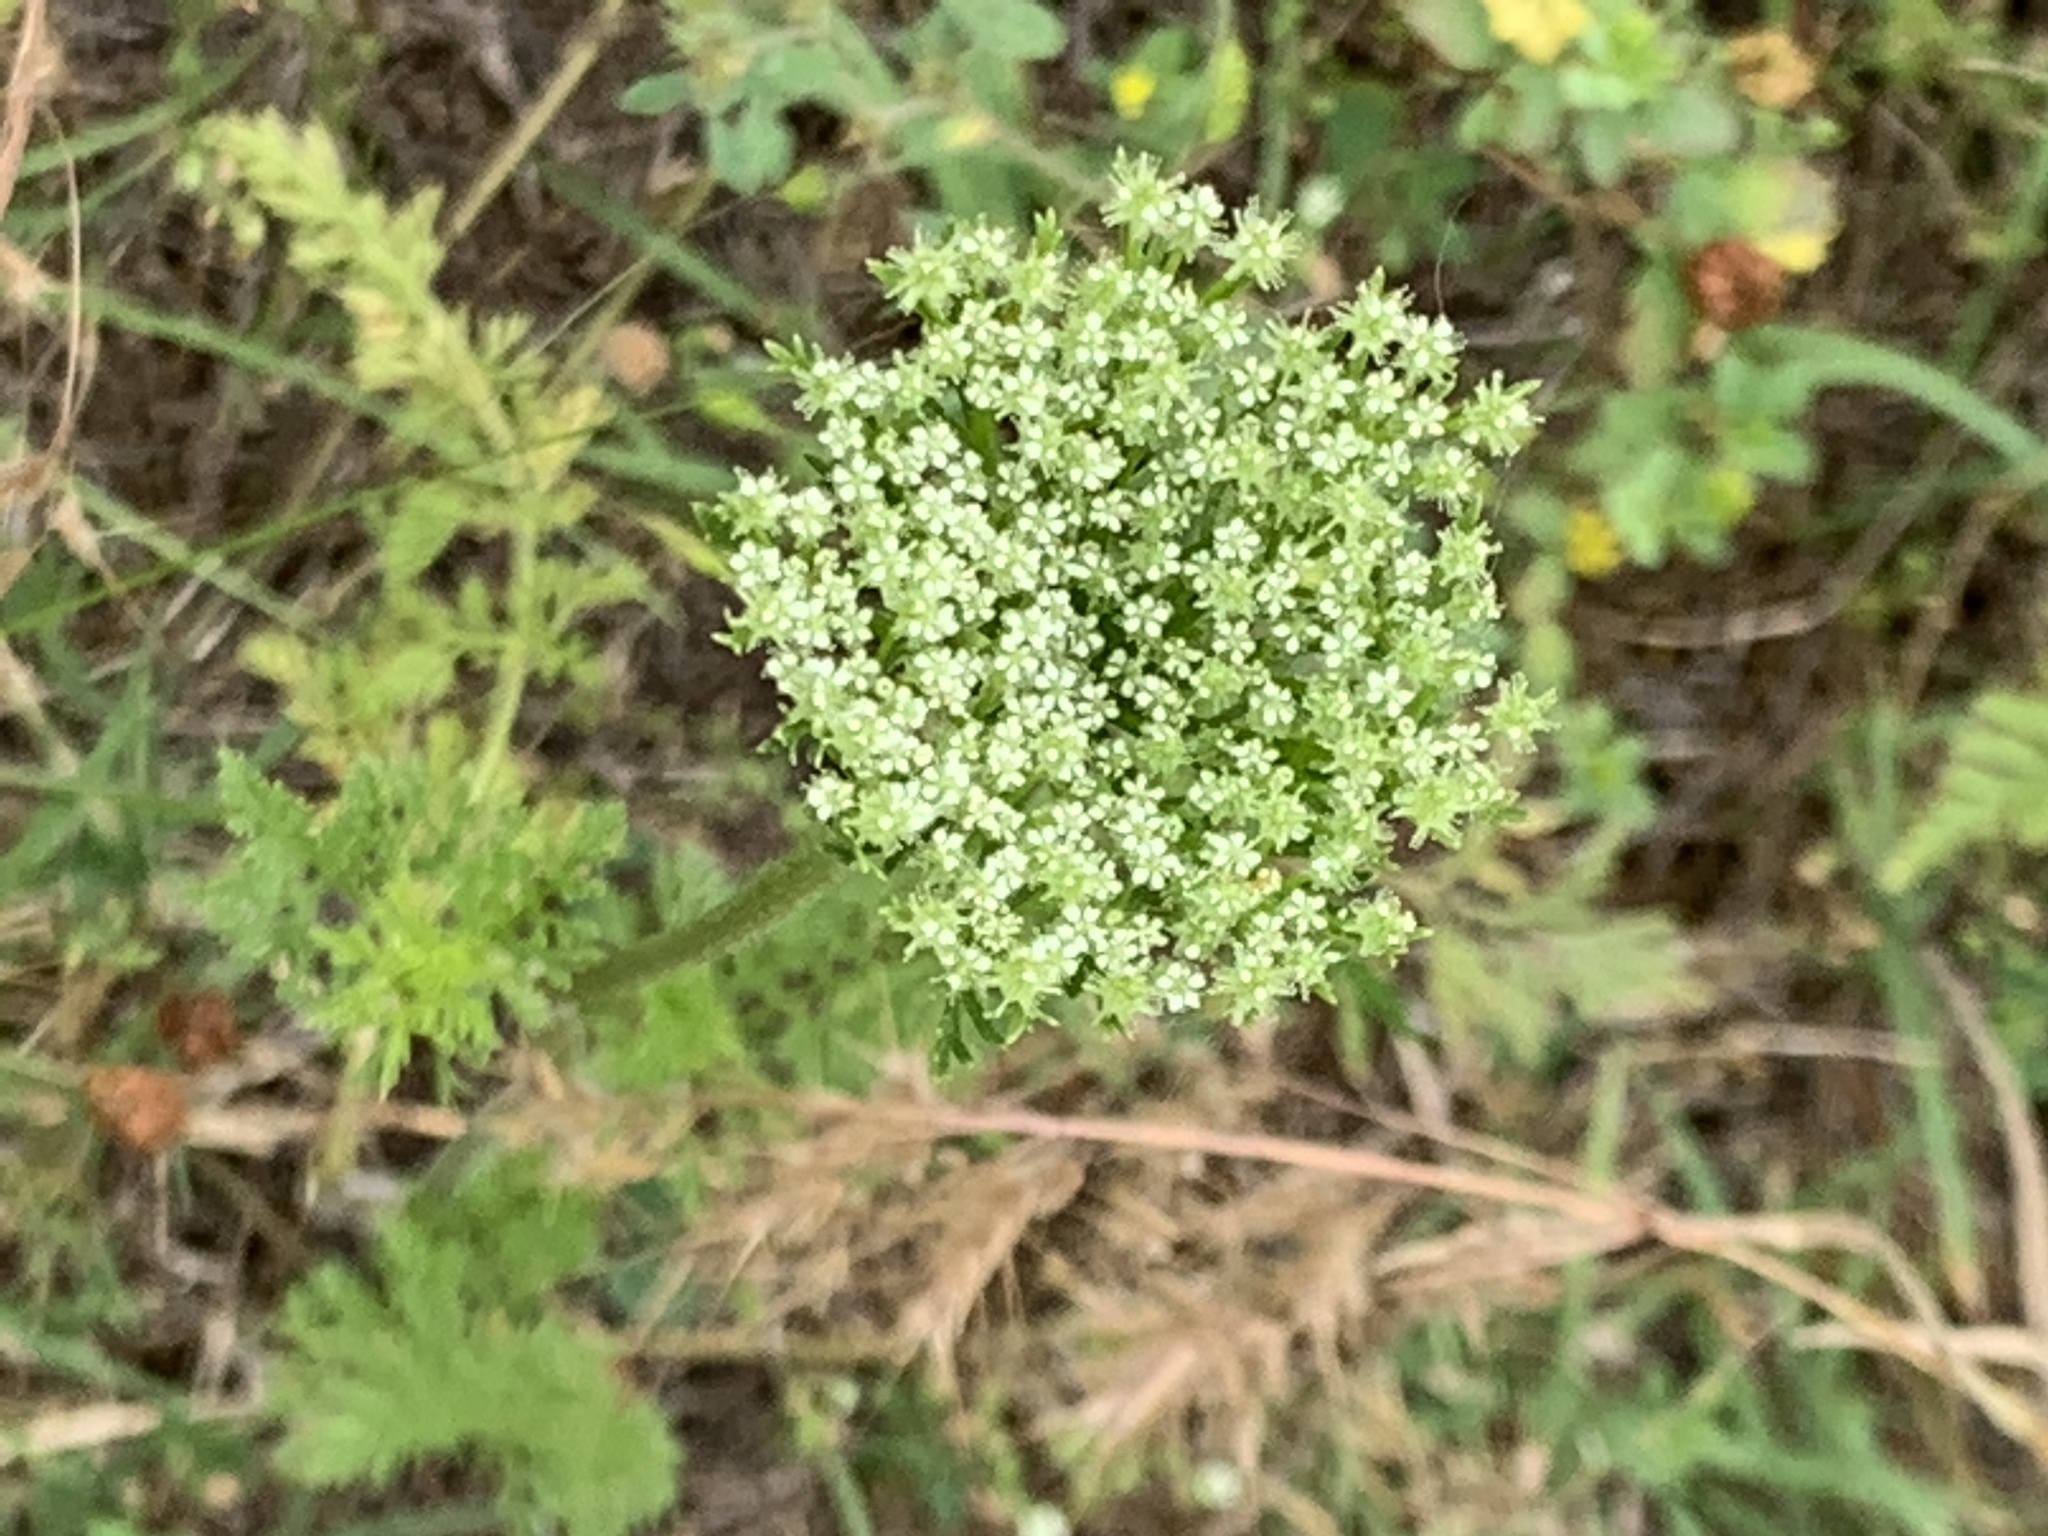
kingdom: Plantae
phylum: Tracheophyta
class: Magnoliopsida
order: Apiales
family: Apiaceae
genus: Daucus
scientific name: Daucus pusillus
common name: Southwest wild carrot
